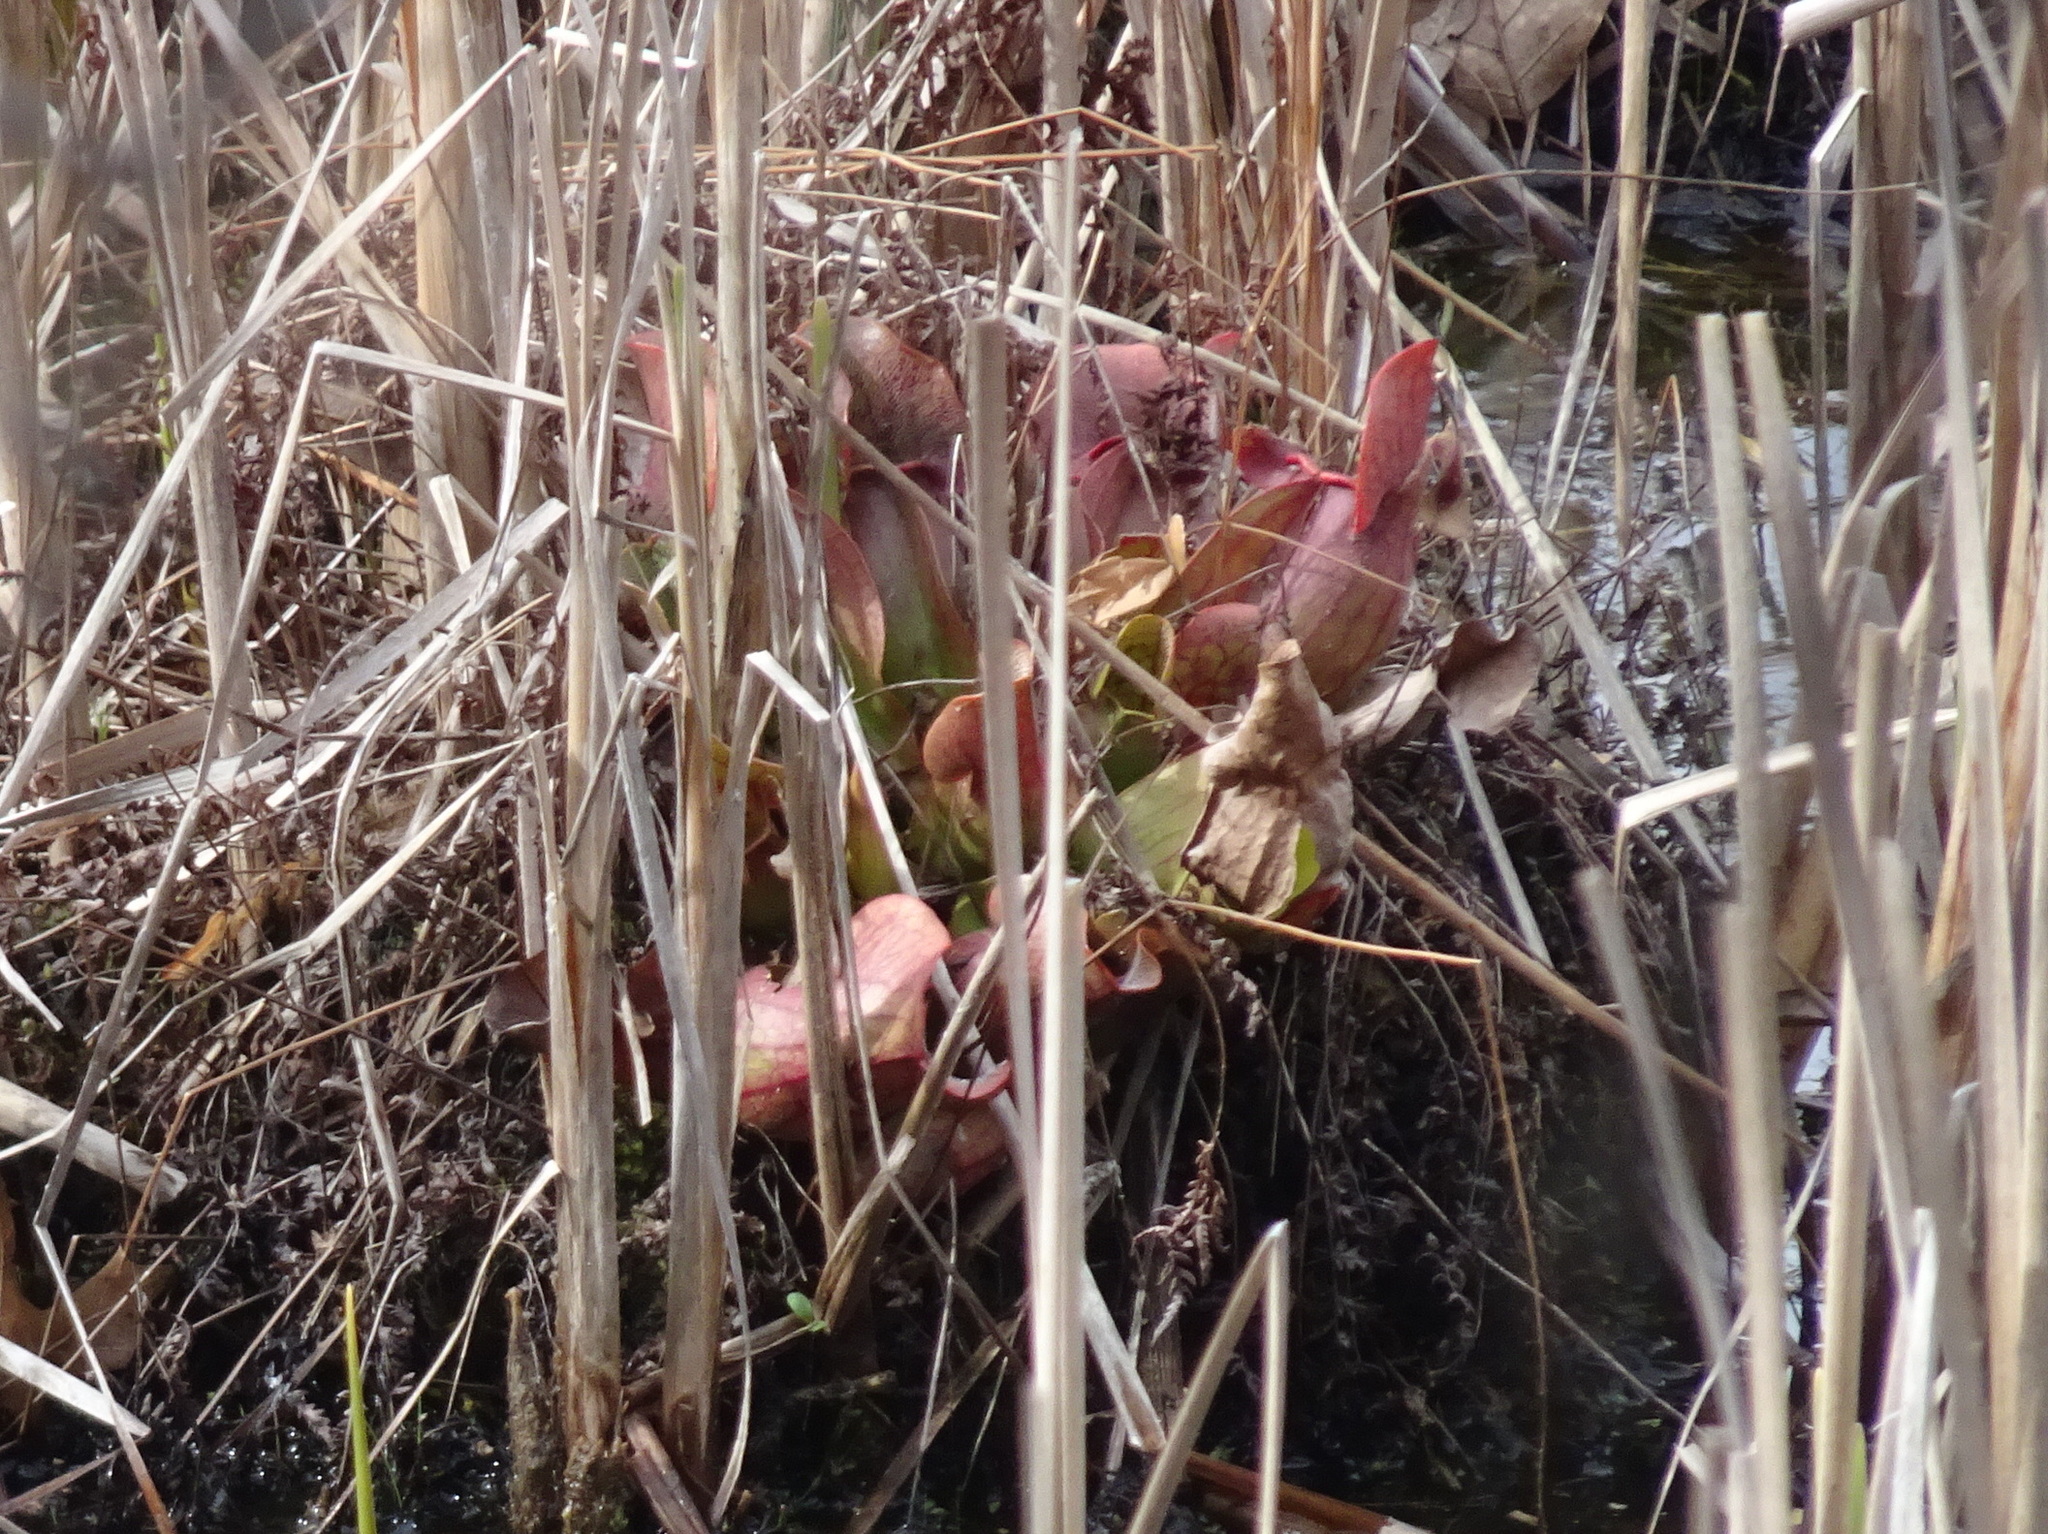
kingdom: Plantae
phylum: Tracheophyta
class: Magnoliopsida
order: Ericales
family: Sarraceniaceae
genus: Sarracenia
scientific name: Sarracenia purpurea
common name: Pitcherplant
